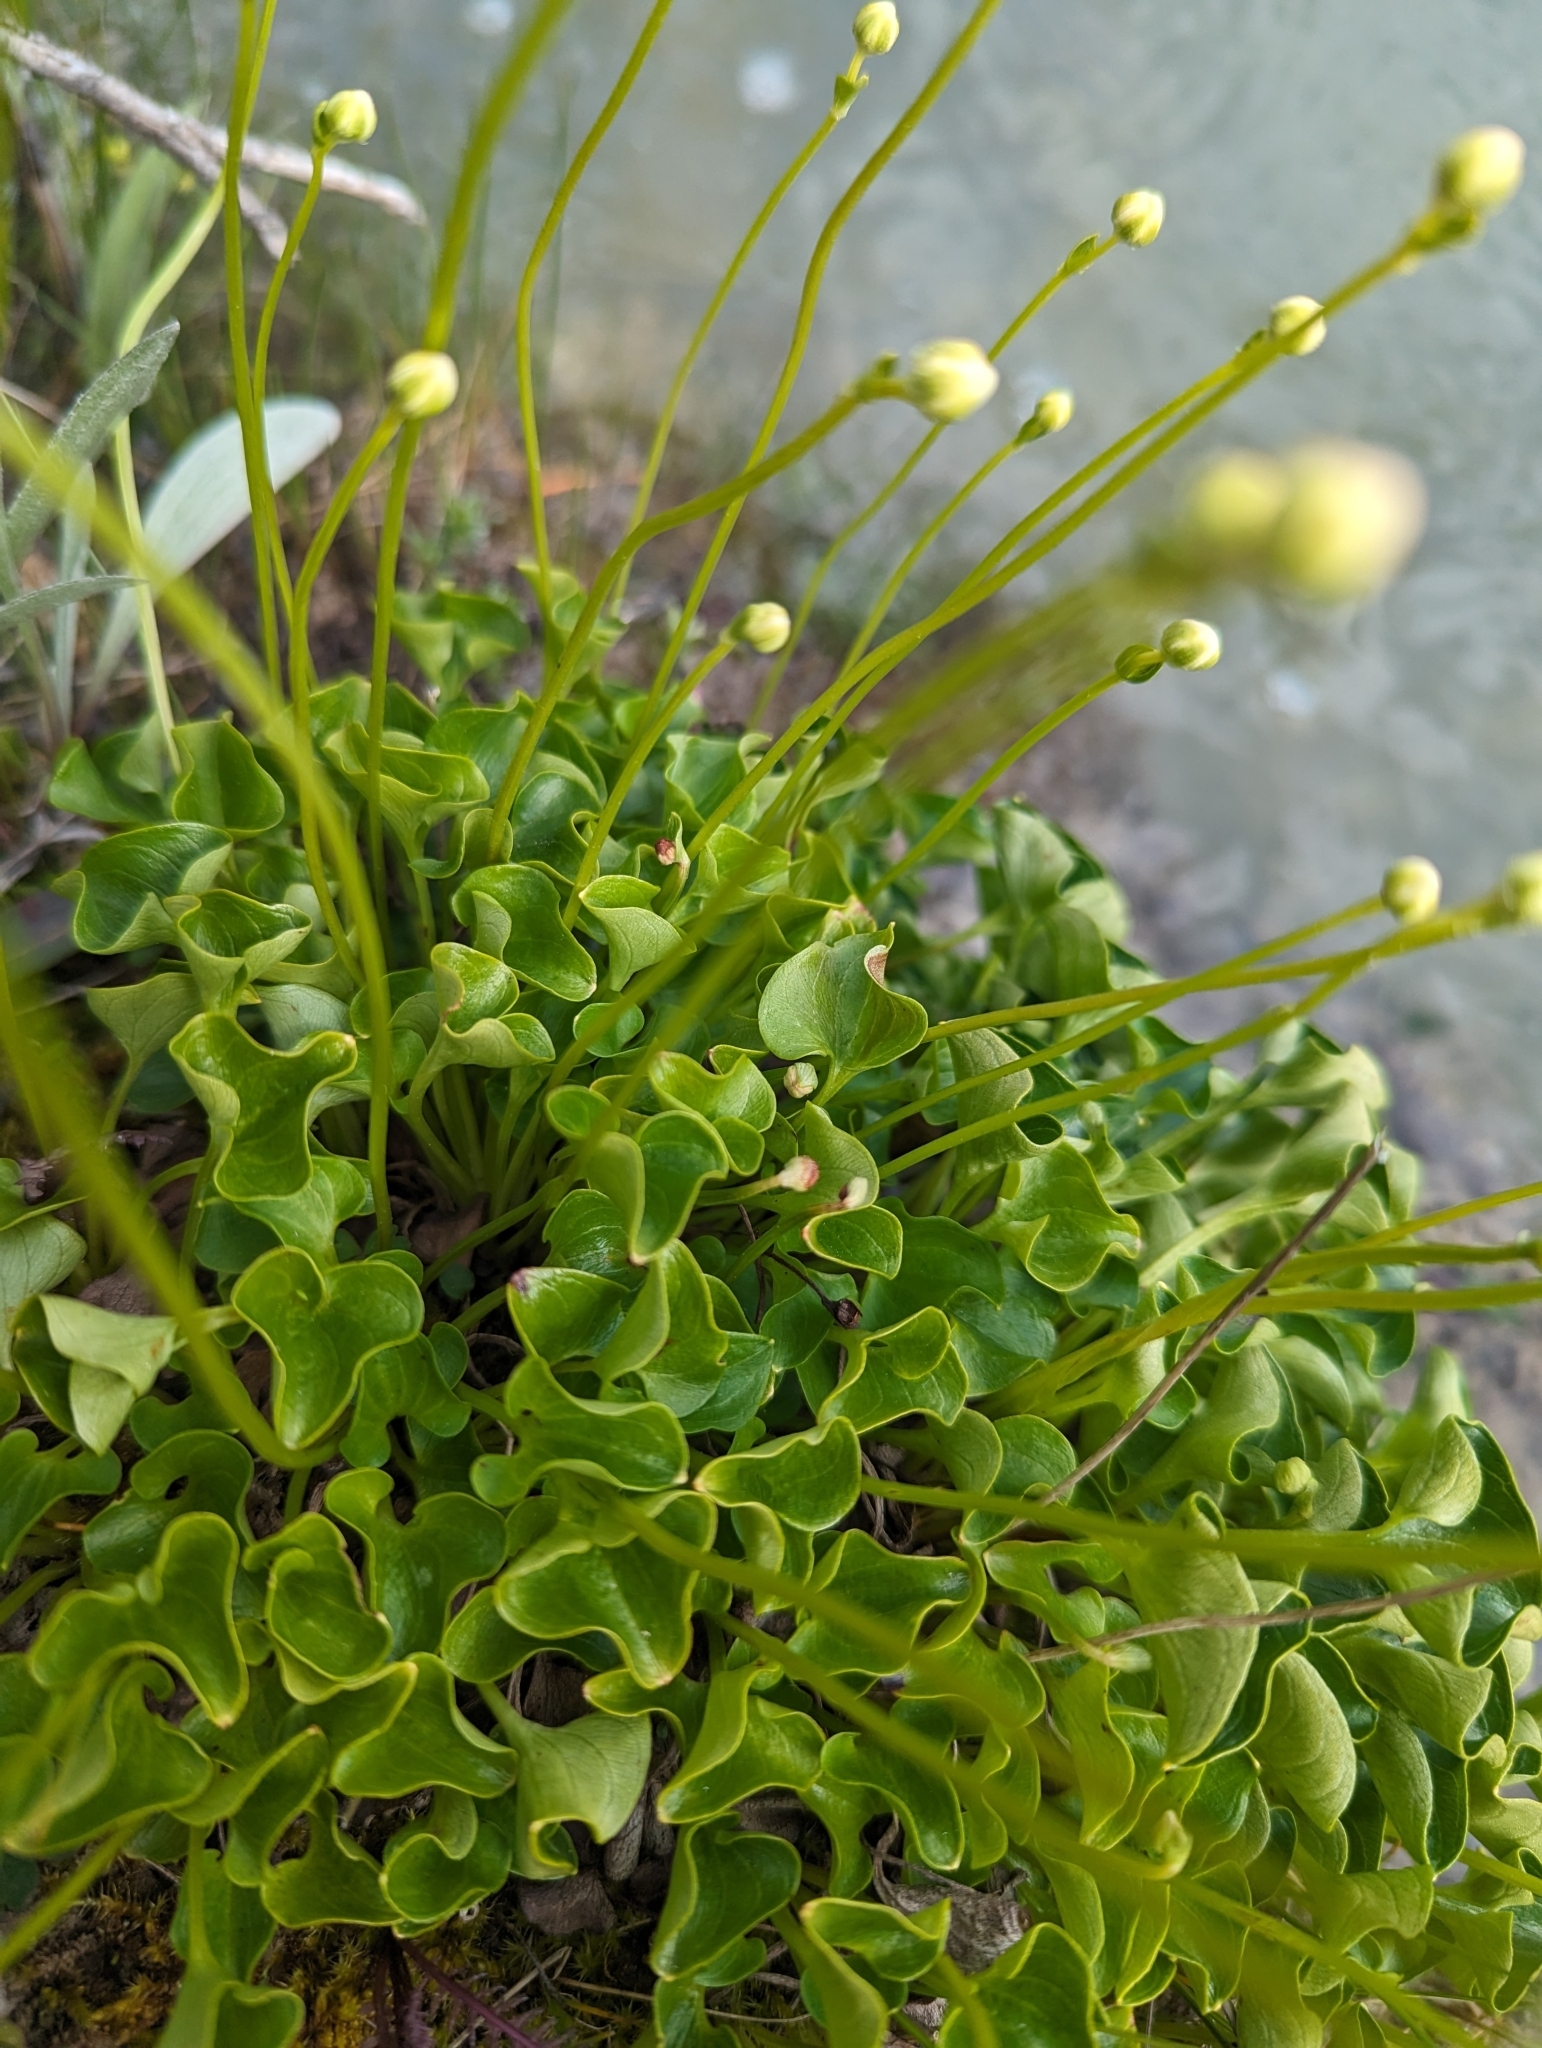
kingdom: Plantae
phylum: Tracheophyta
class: Magnoliopsida
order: Celastrales
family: Parnassiaceae
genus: Parnassia
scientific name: Parnassia fimbriata
